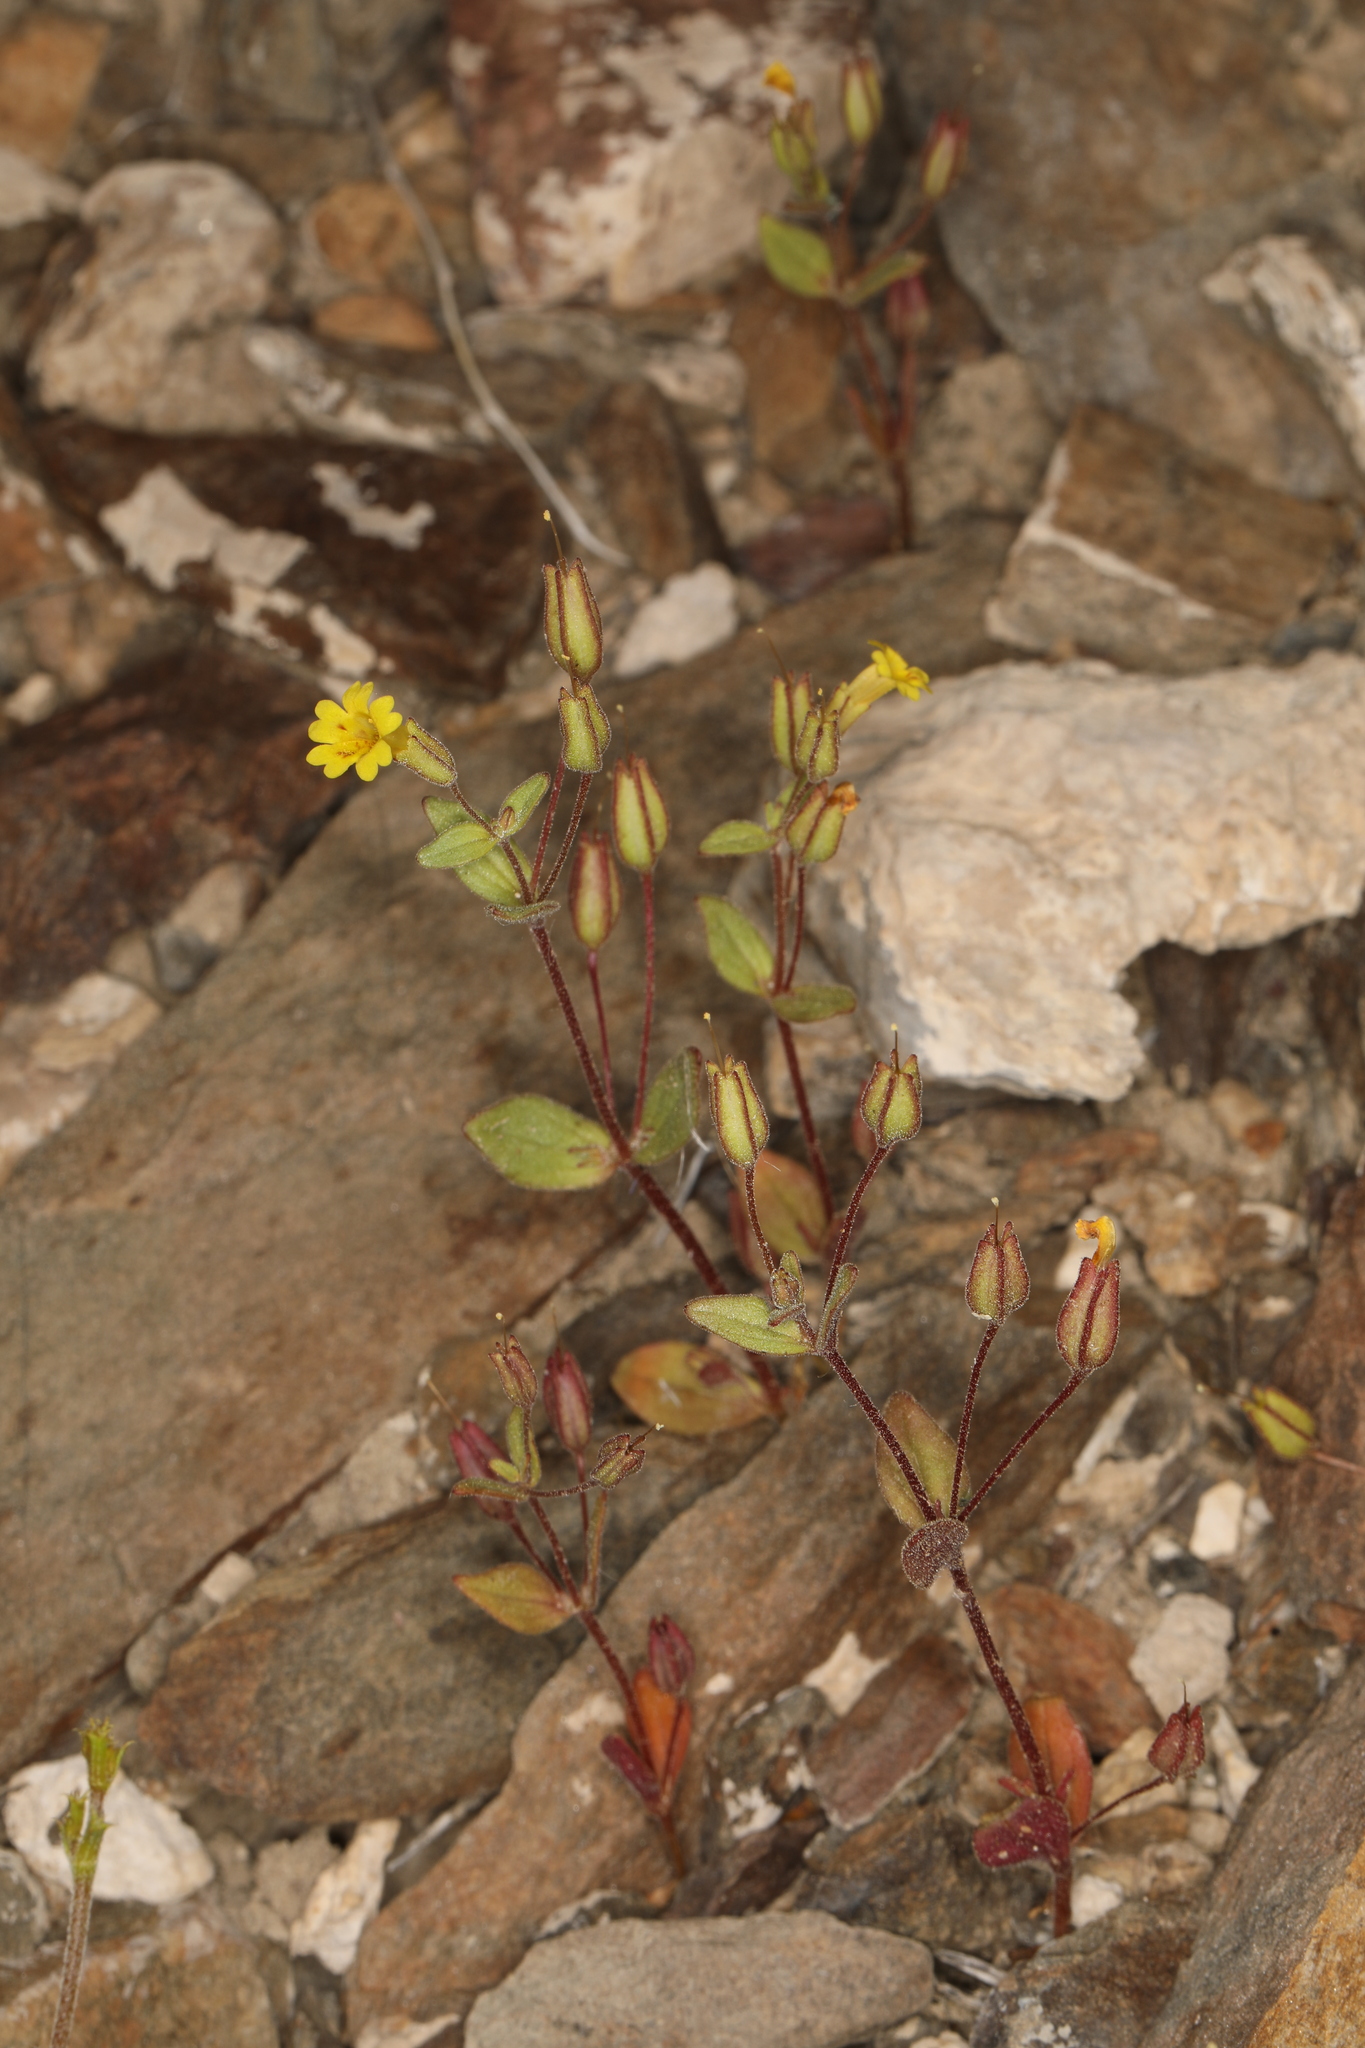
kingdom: Plantae
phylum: Tracheophyta
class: Magnoliopsida
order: Lamiales
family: Phrymaceae
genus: Erythranthe
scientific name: Erythranthe calcicola
